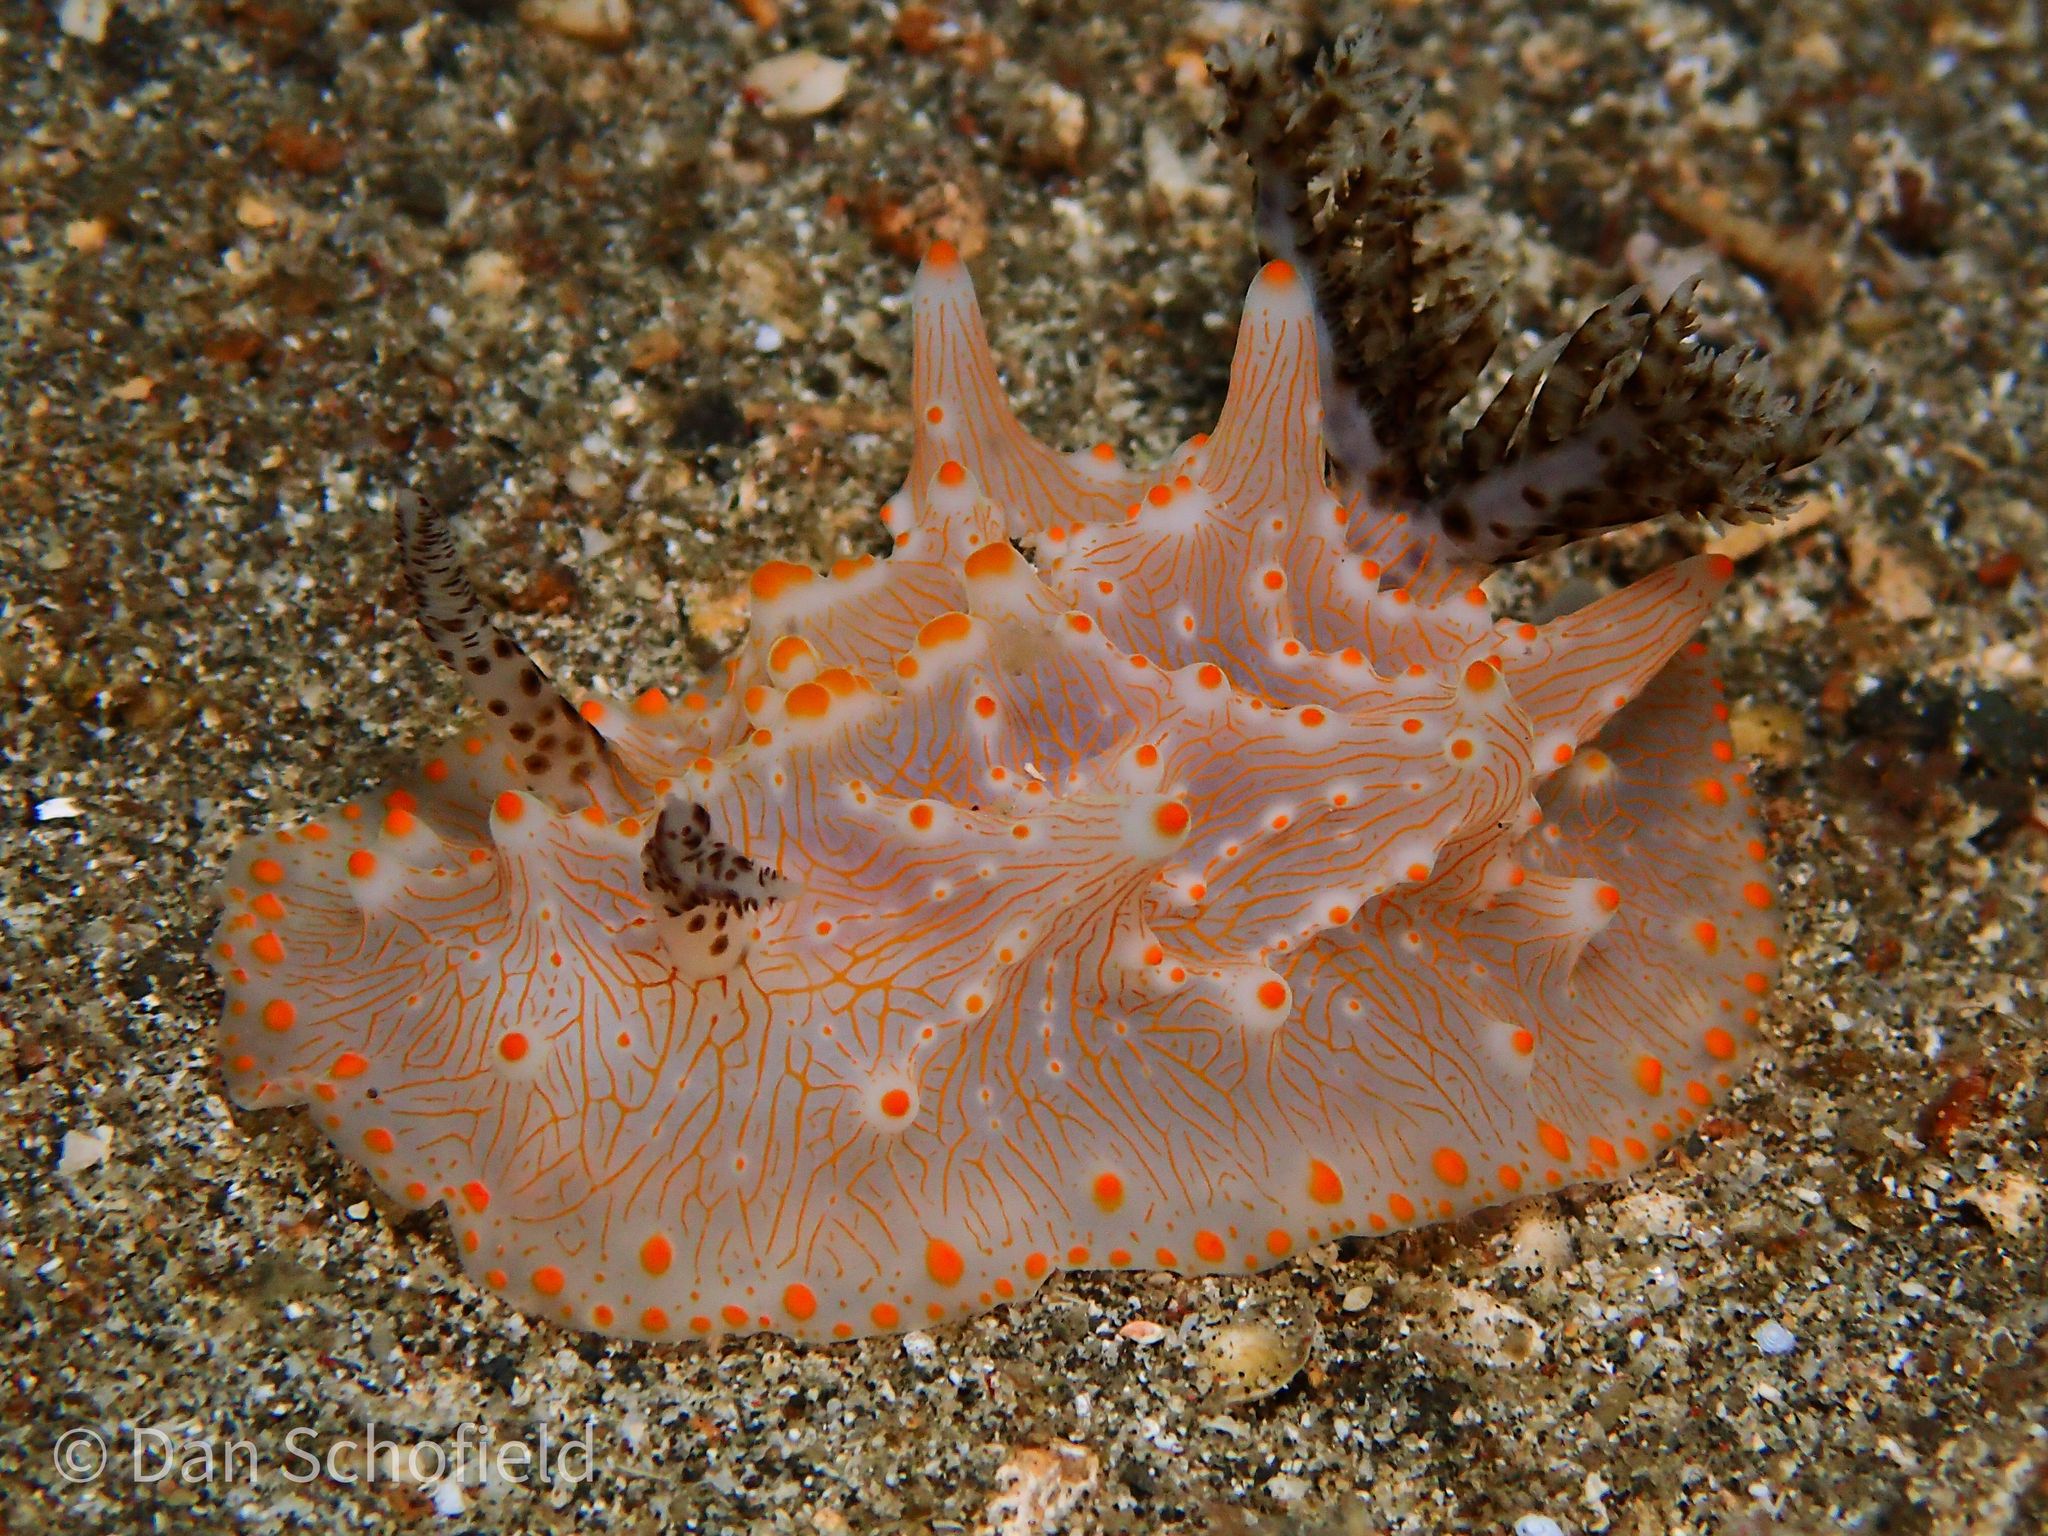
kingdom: Animalia
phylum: Mollusca
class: Gastropoda
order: Nudibranchia
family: Discodorididae
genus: Halgerda
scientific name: Halgerda batangas
